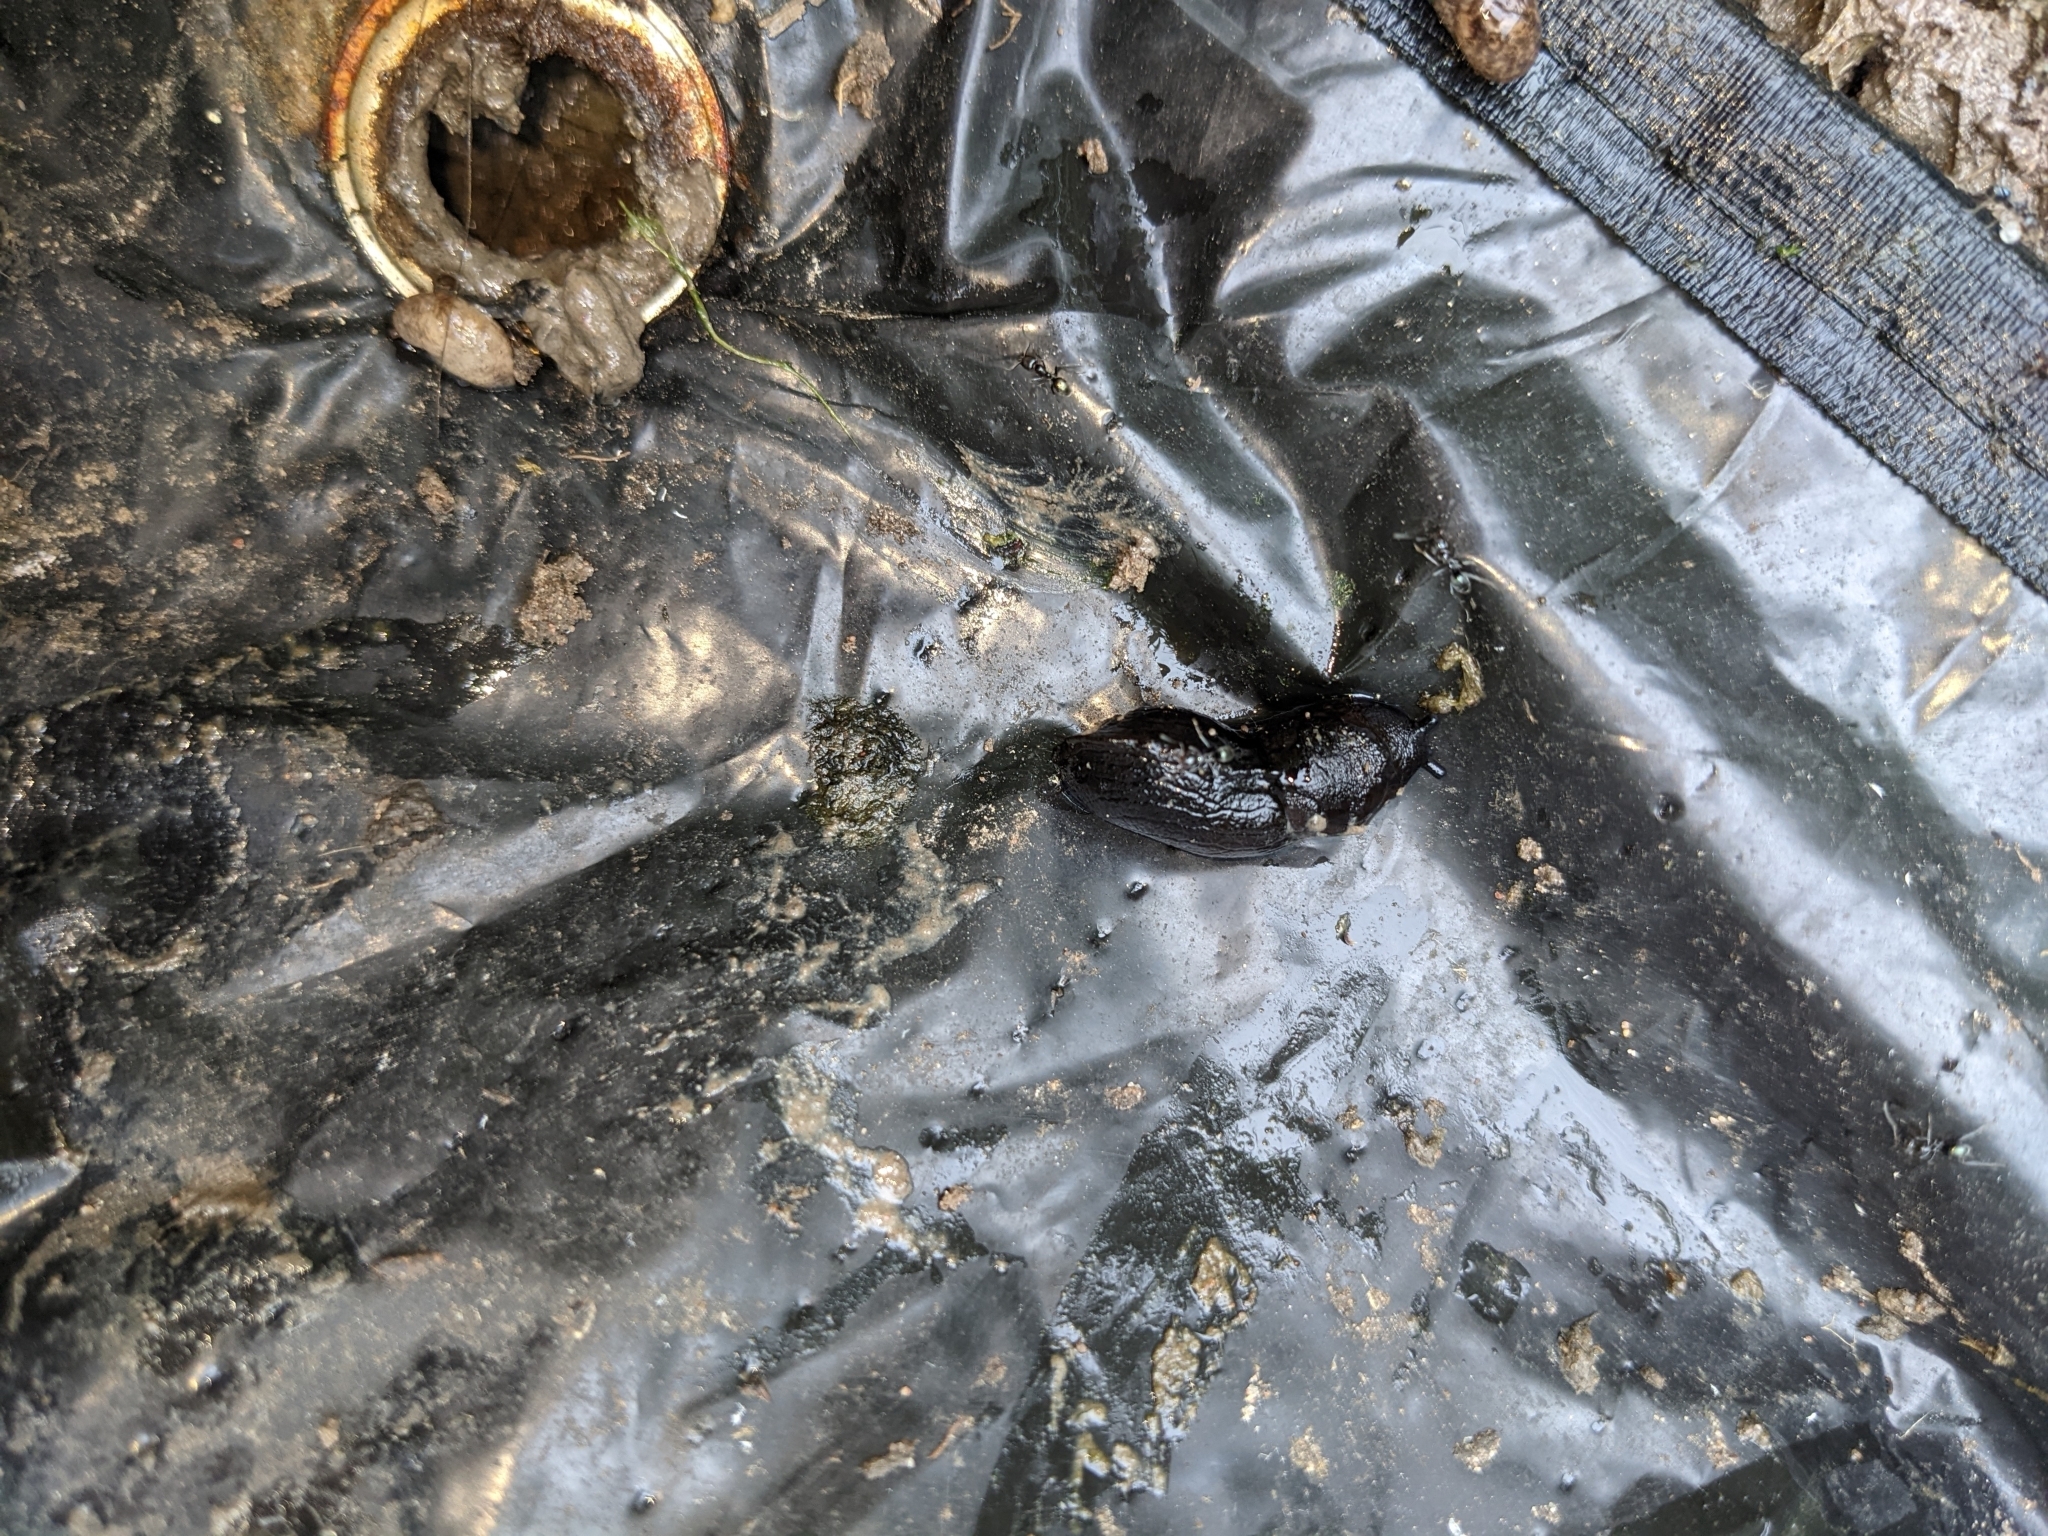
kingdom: Animalia
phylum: Mollusca
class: Gastropoda
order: Stylommatophora
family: Milacidae
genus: Milax
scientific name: Milax gagates
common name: Greenhouse slug
